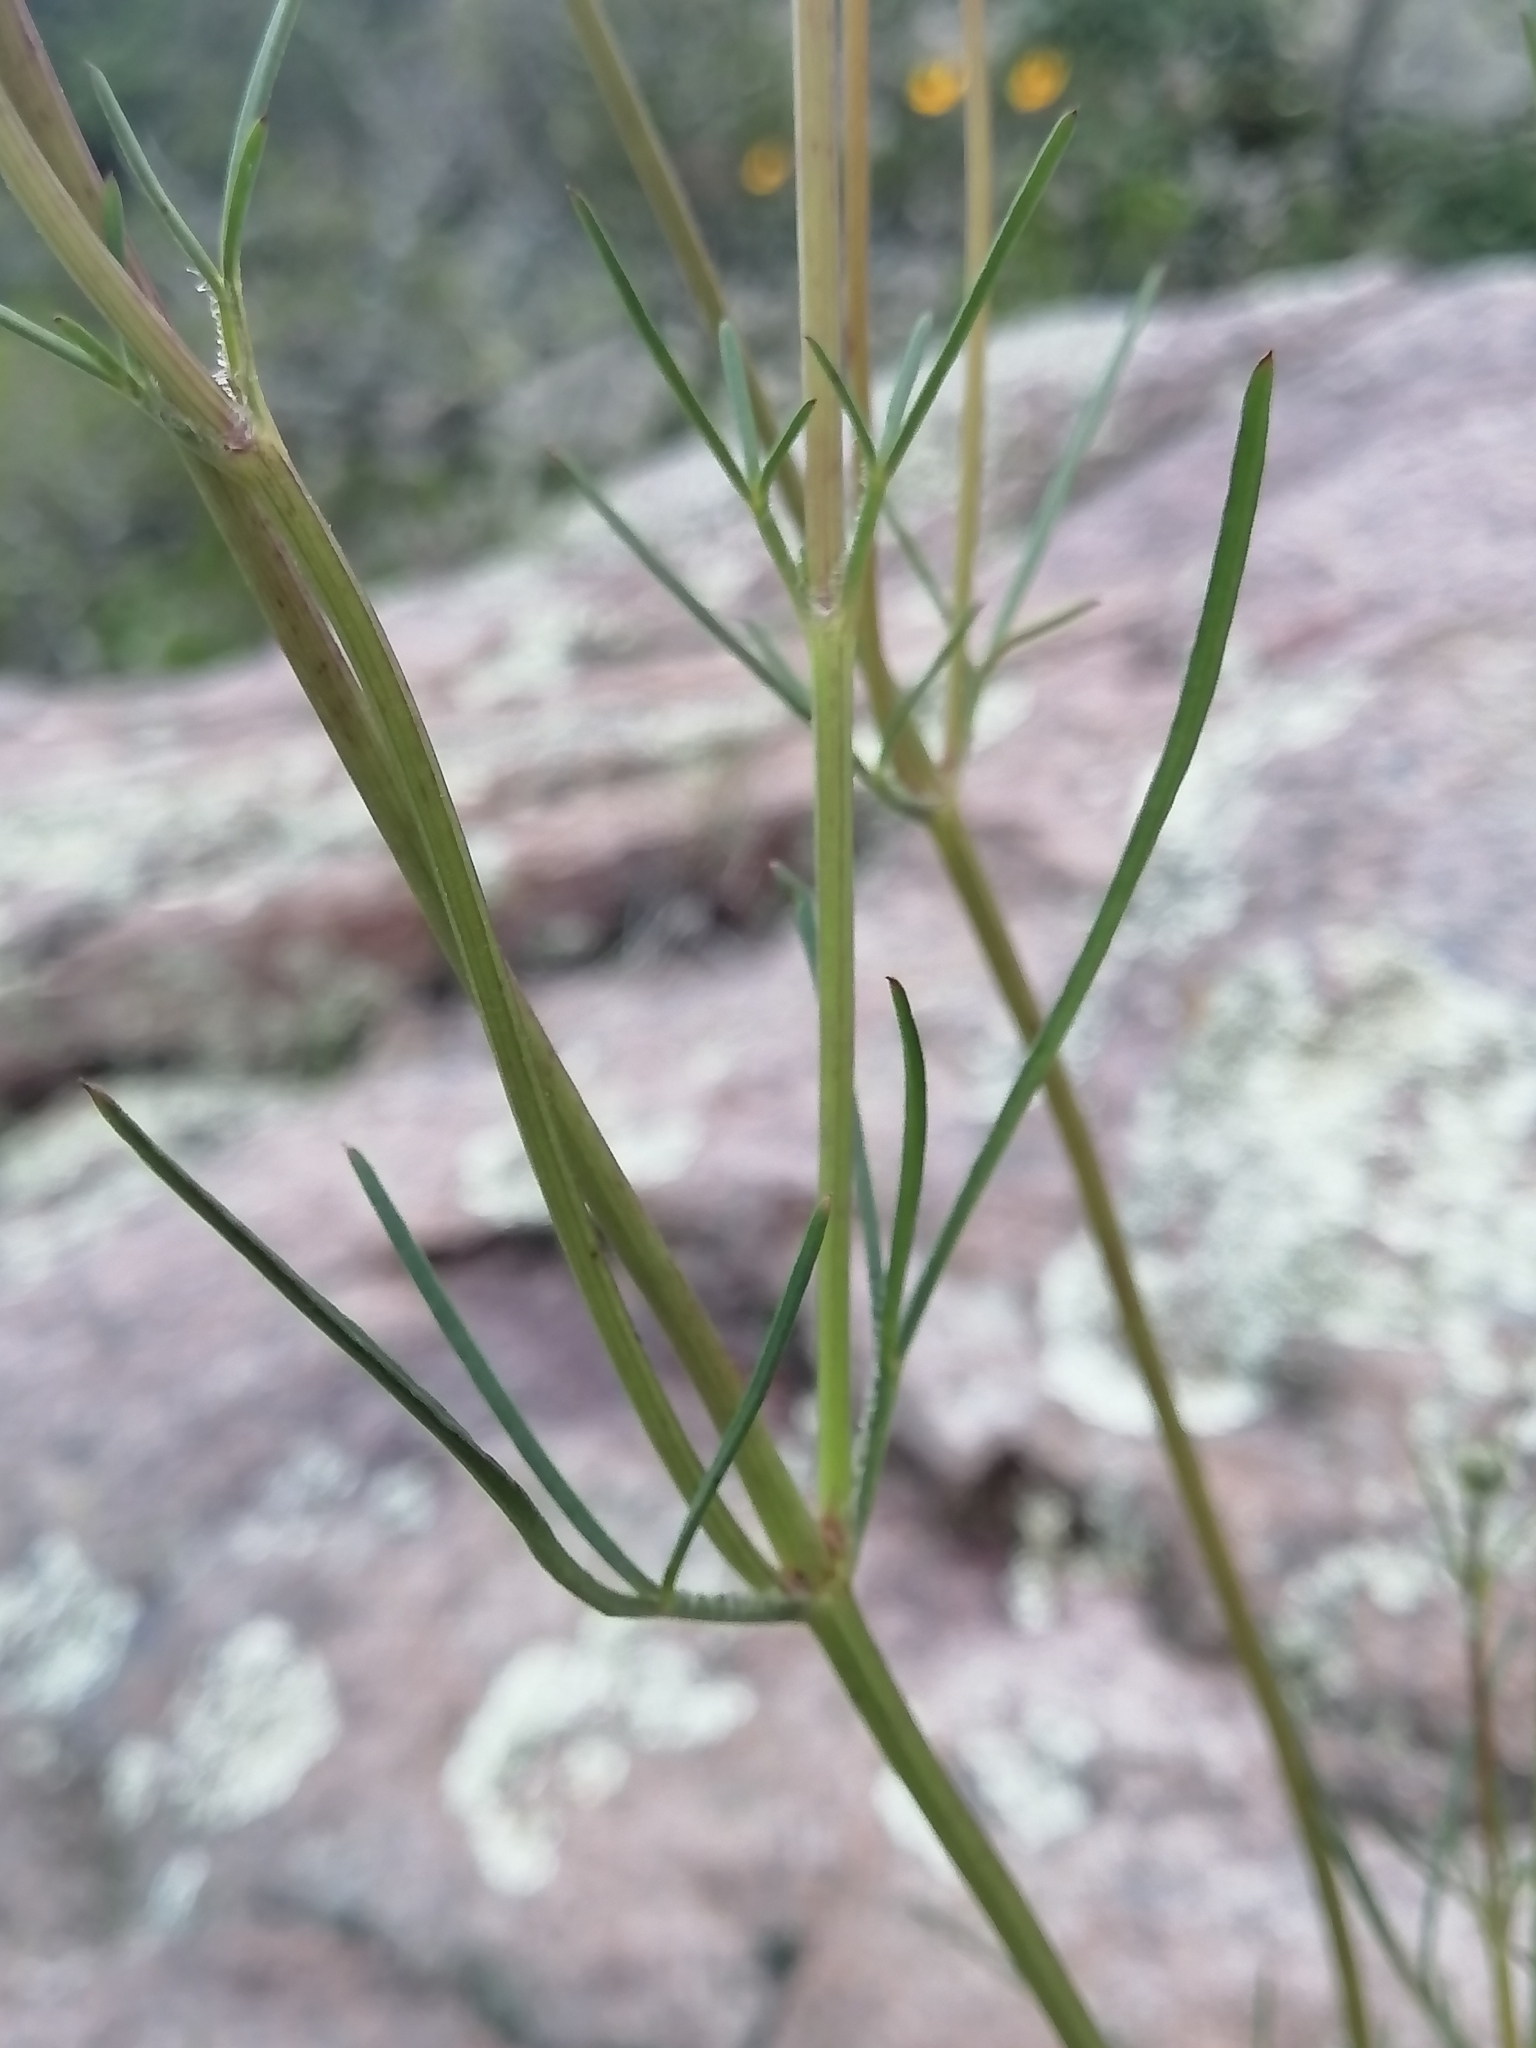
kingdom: Plantae
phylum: Tracheophyta
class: Magnoliopsida
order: Asterales
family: Asteraceae
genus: Bidens
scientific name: Bidens angustissima
